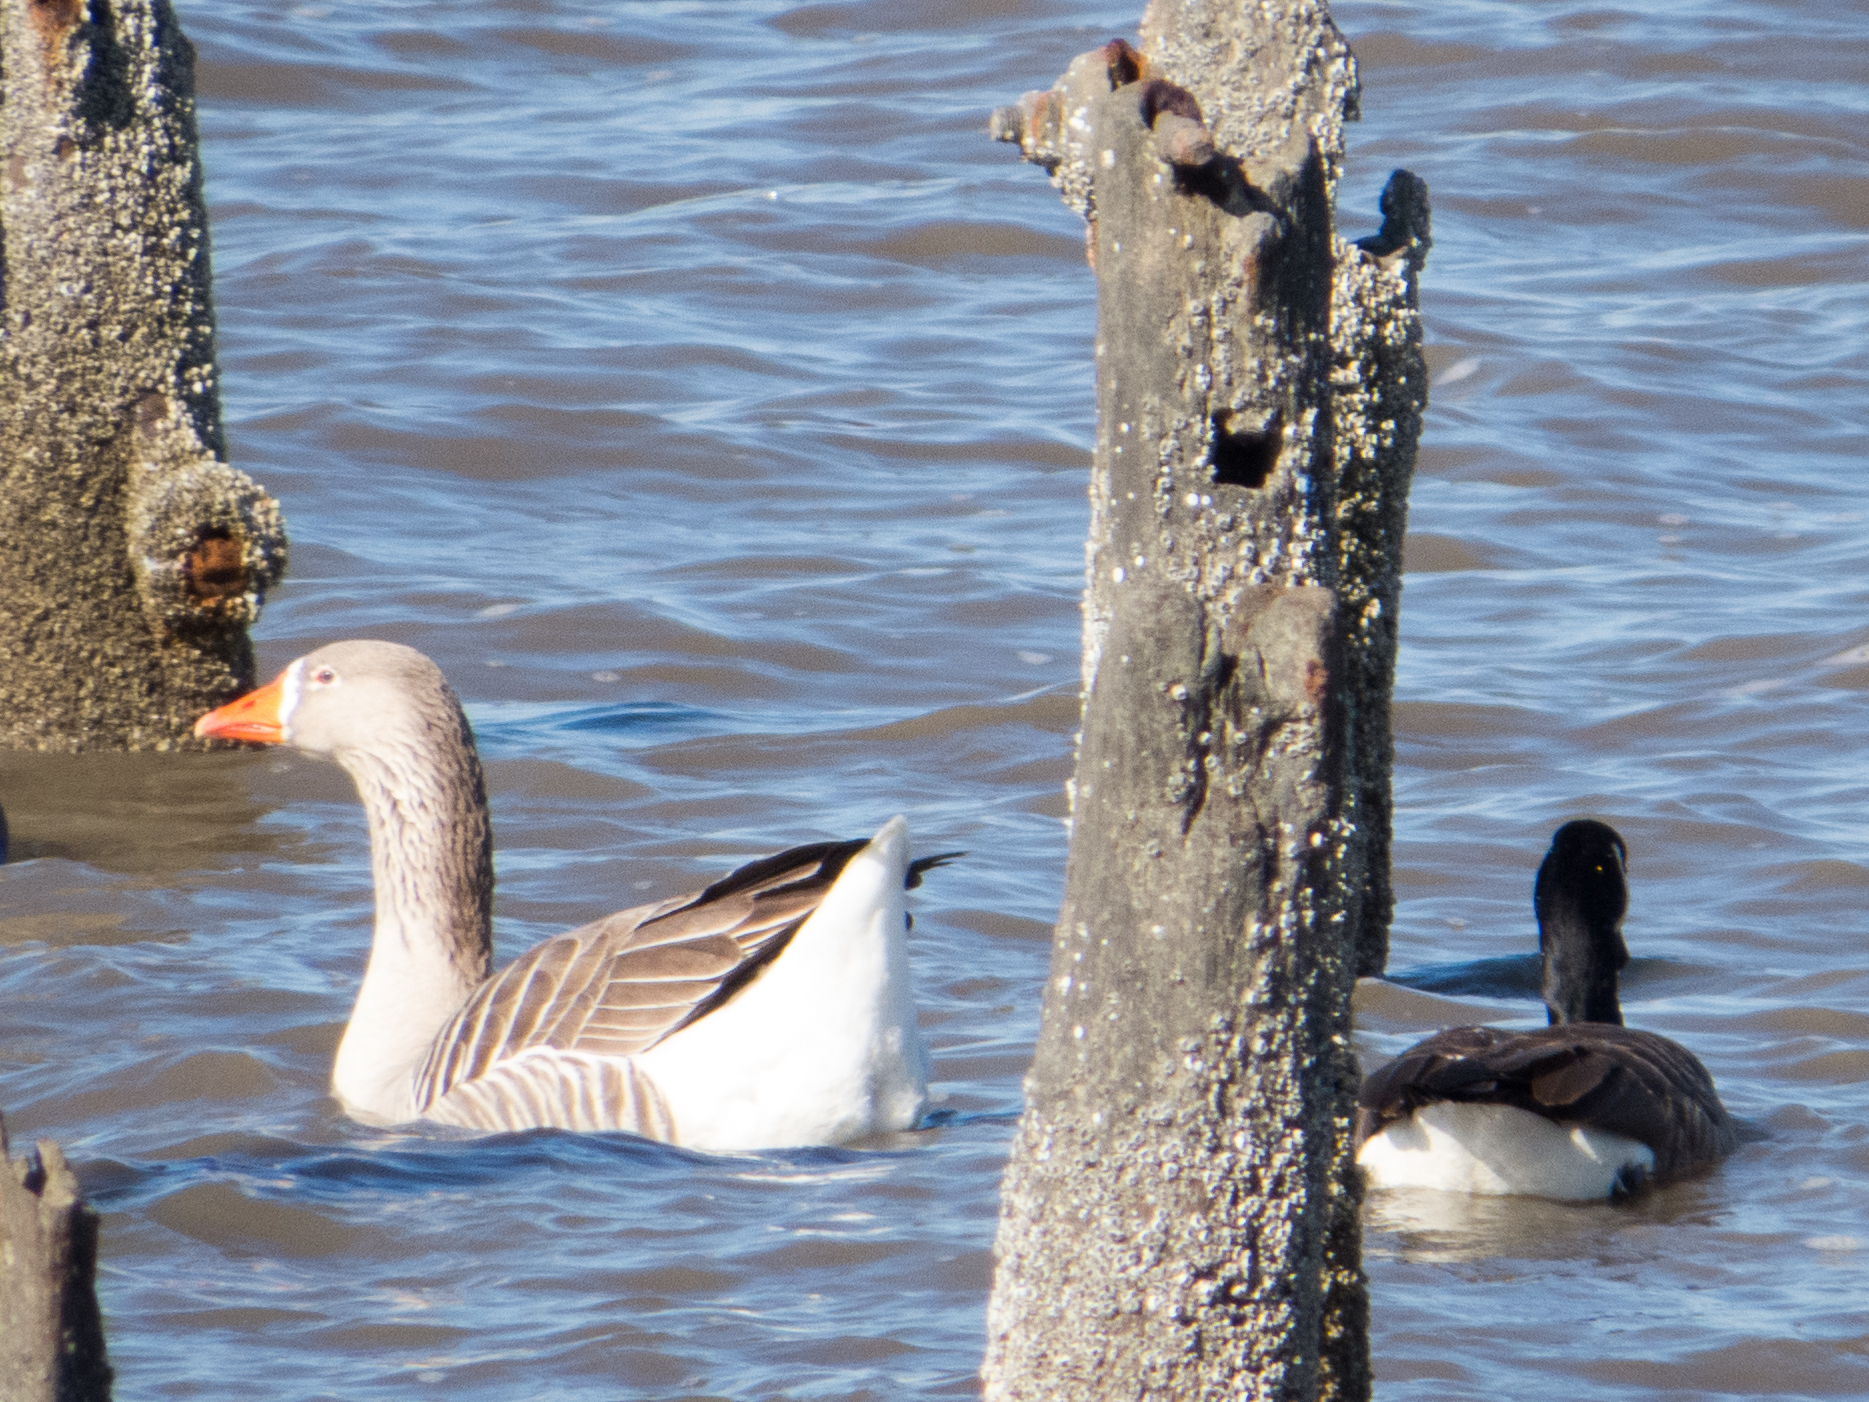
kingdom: Animalia
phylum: Chordata
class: Aves
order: Anseriformes
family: Anatidae
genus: Anser
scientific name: Anser
